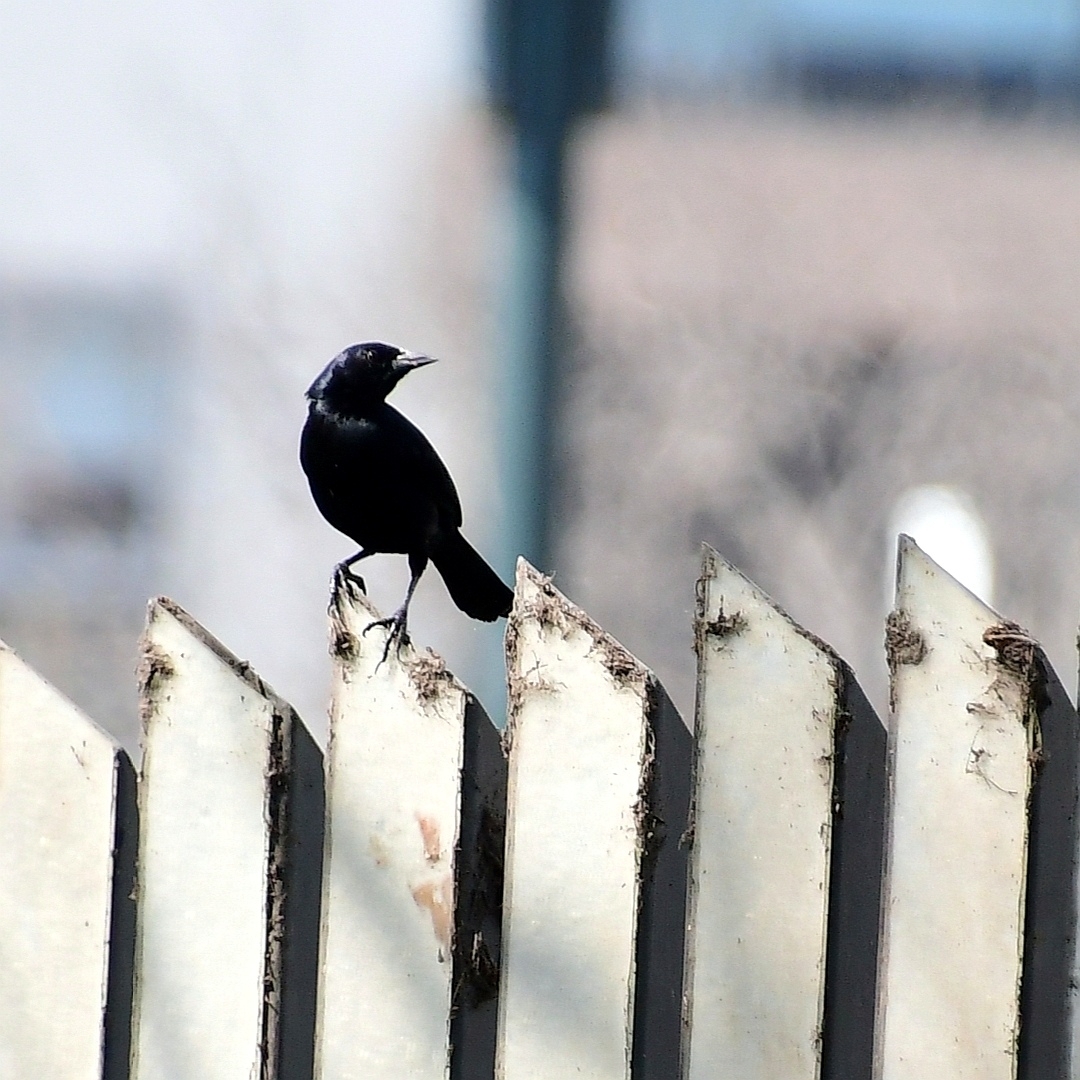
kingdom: Animalia
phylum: Chordata
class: Aves
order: Passeriformes
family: Icteridae
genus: Dives
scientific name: Dives warczewiczi
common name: Scrub blackbird
